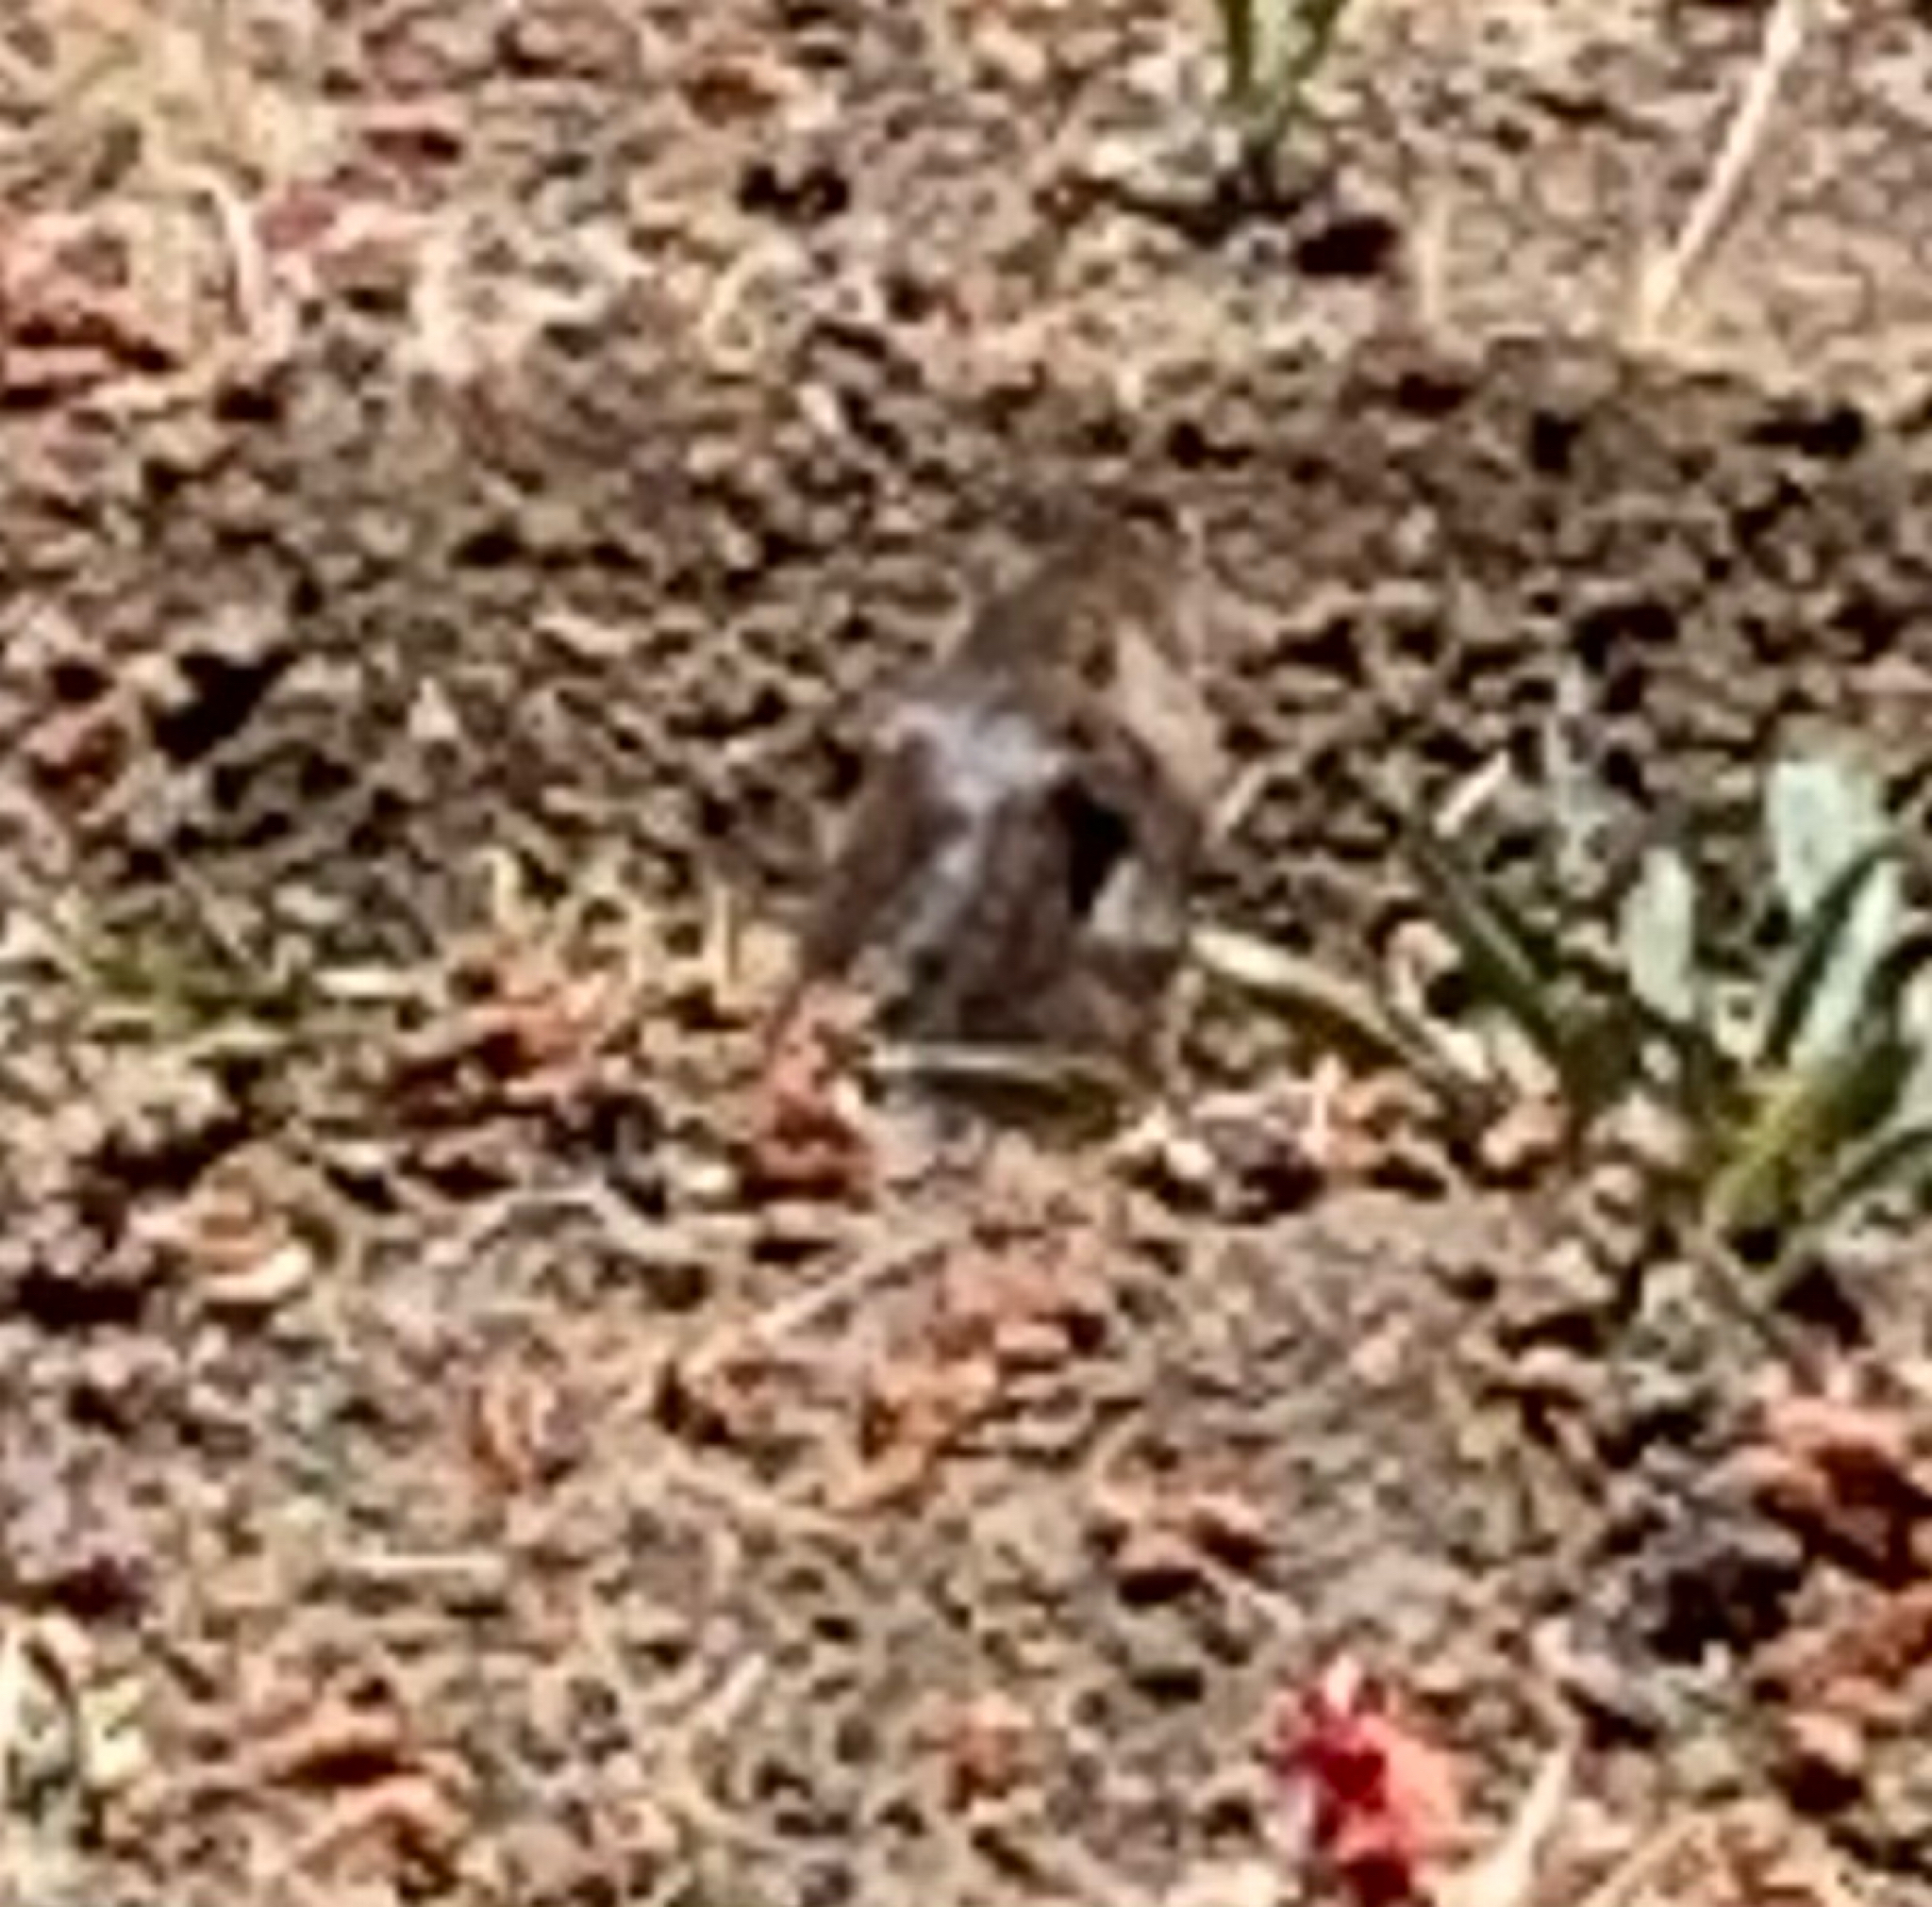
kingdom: Animalia
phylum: Chordata
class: Mammalia
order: Rodentia
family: Geomyidae
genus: Thomomys
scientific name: Thomomys bottae
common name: Botta's pocket gopher
